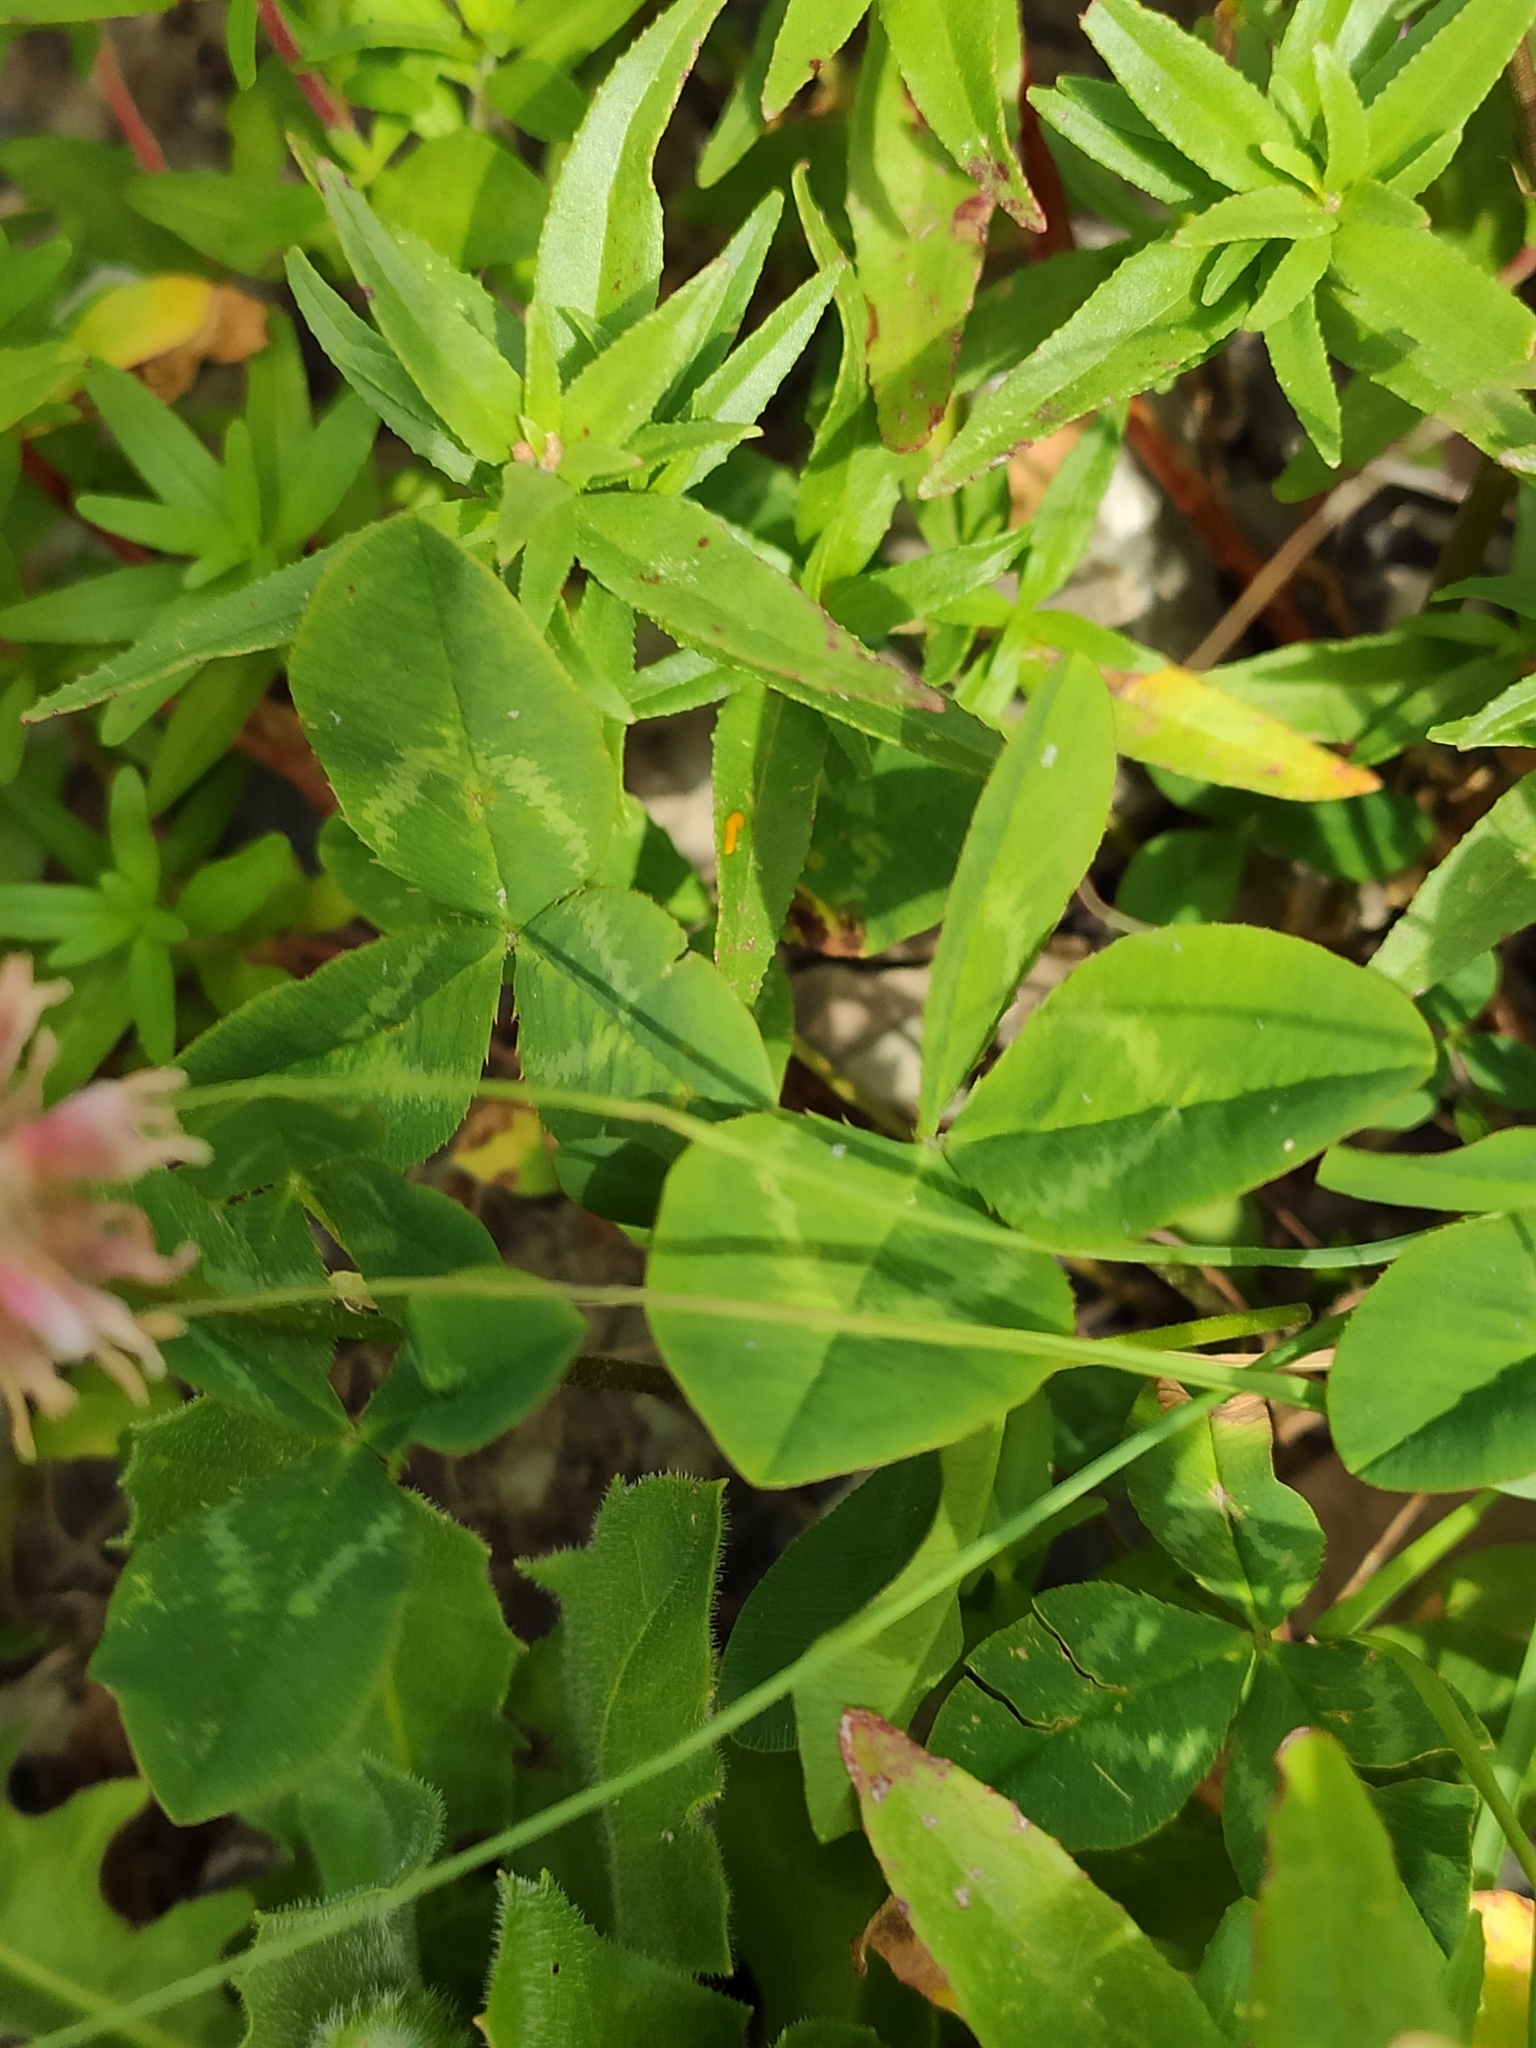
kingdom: Plantae
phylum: Tracheophyta
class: Magnoliopsida
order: Fabales
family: Fabaceae
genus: Trifolium
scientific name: Trifolium ambiguum
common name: Kura clover
